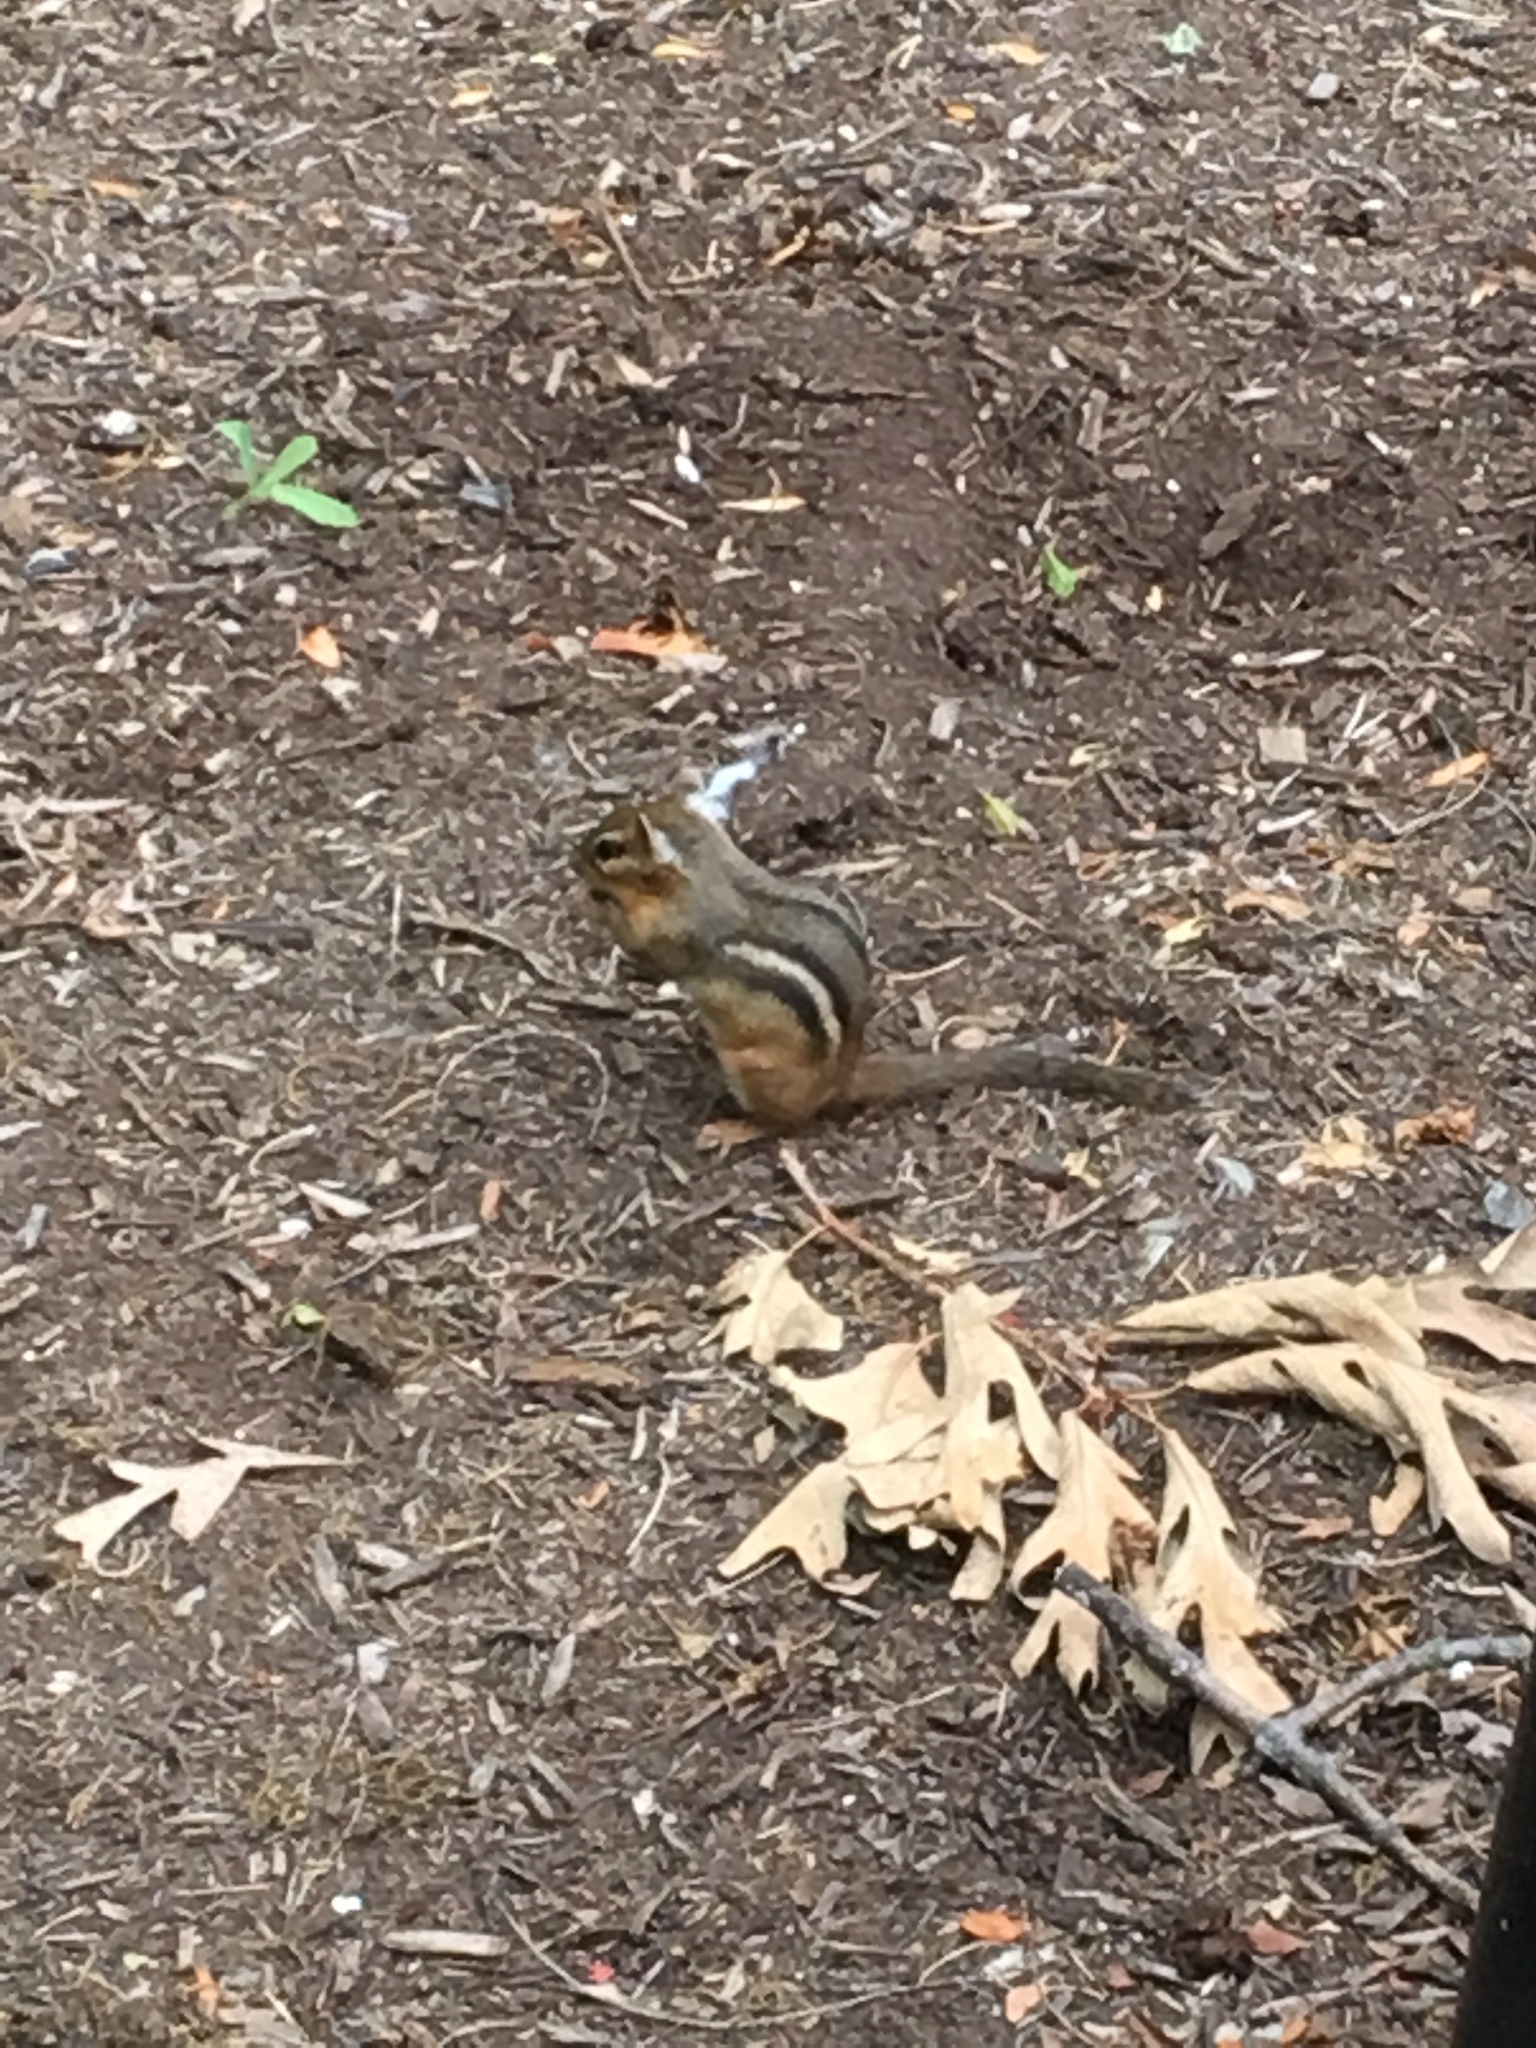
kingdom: Animalia
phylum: Chordata
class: Mammalia
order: Rodentia
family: Sciuridae
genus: Tamias
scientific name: Tamias striatus
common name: Eastern chipmunk
